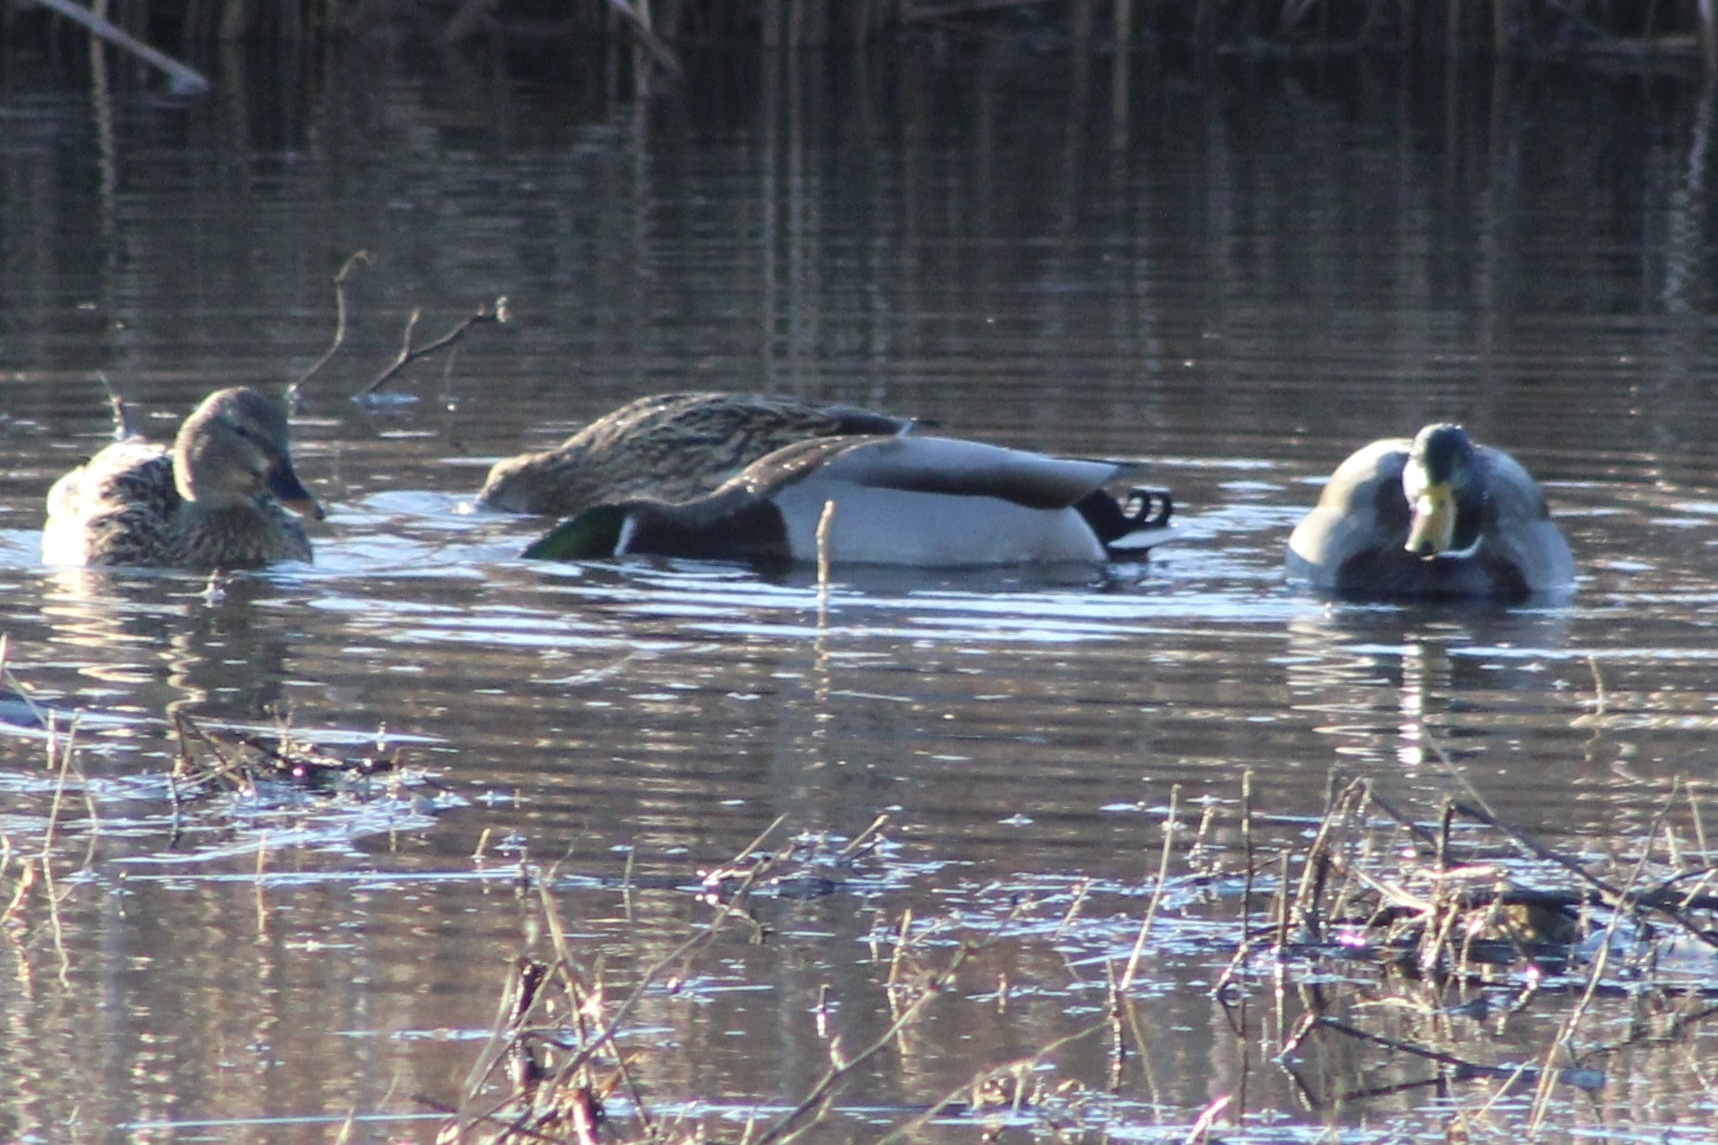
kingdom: Animalia
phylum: Chordata
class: Aves
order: Anseriformes
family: Anatidae
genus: Anas
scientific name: Anas platyrhynchos
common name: Mallard
